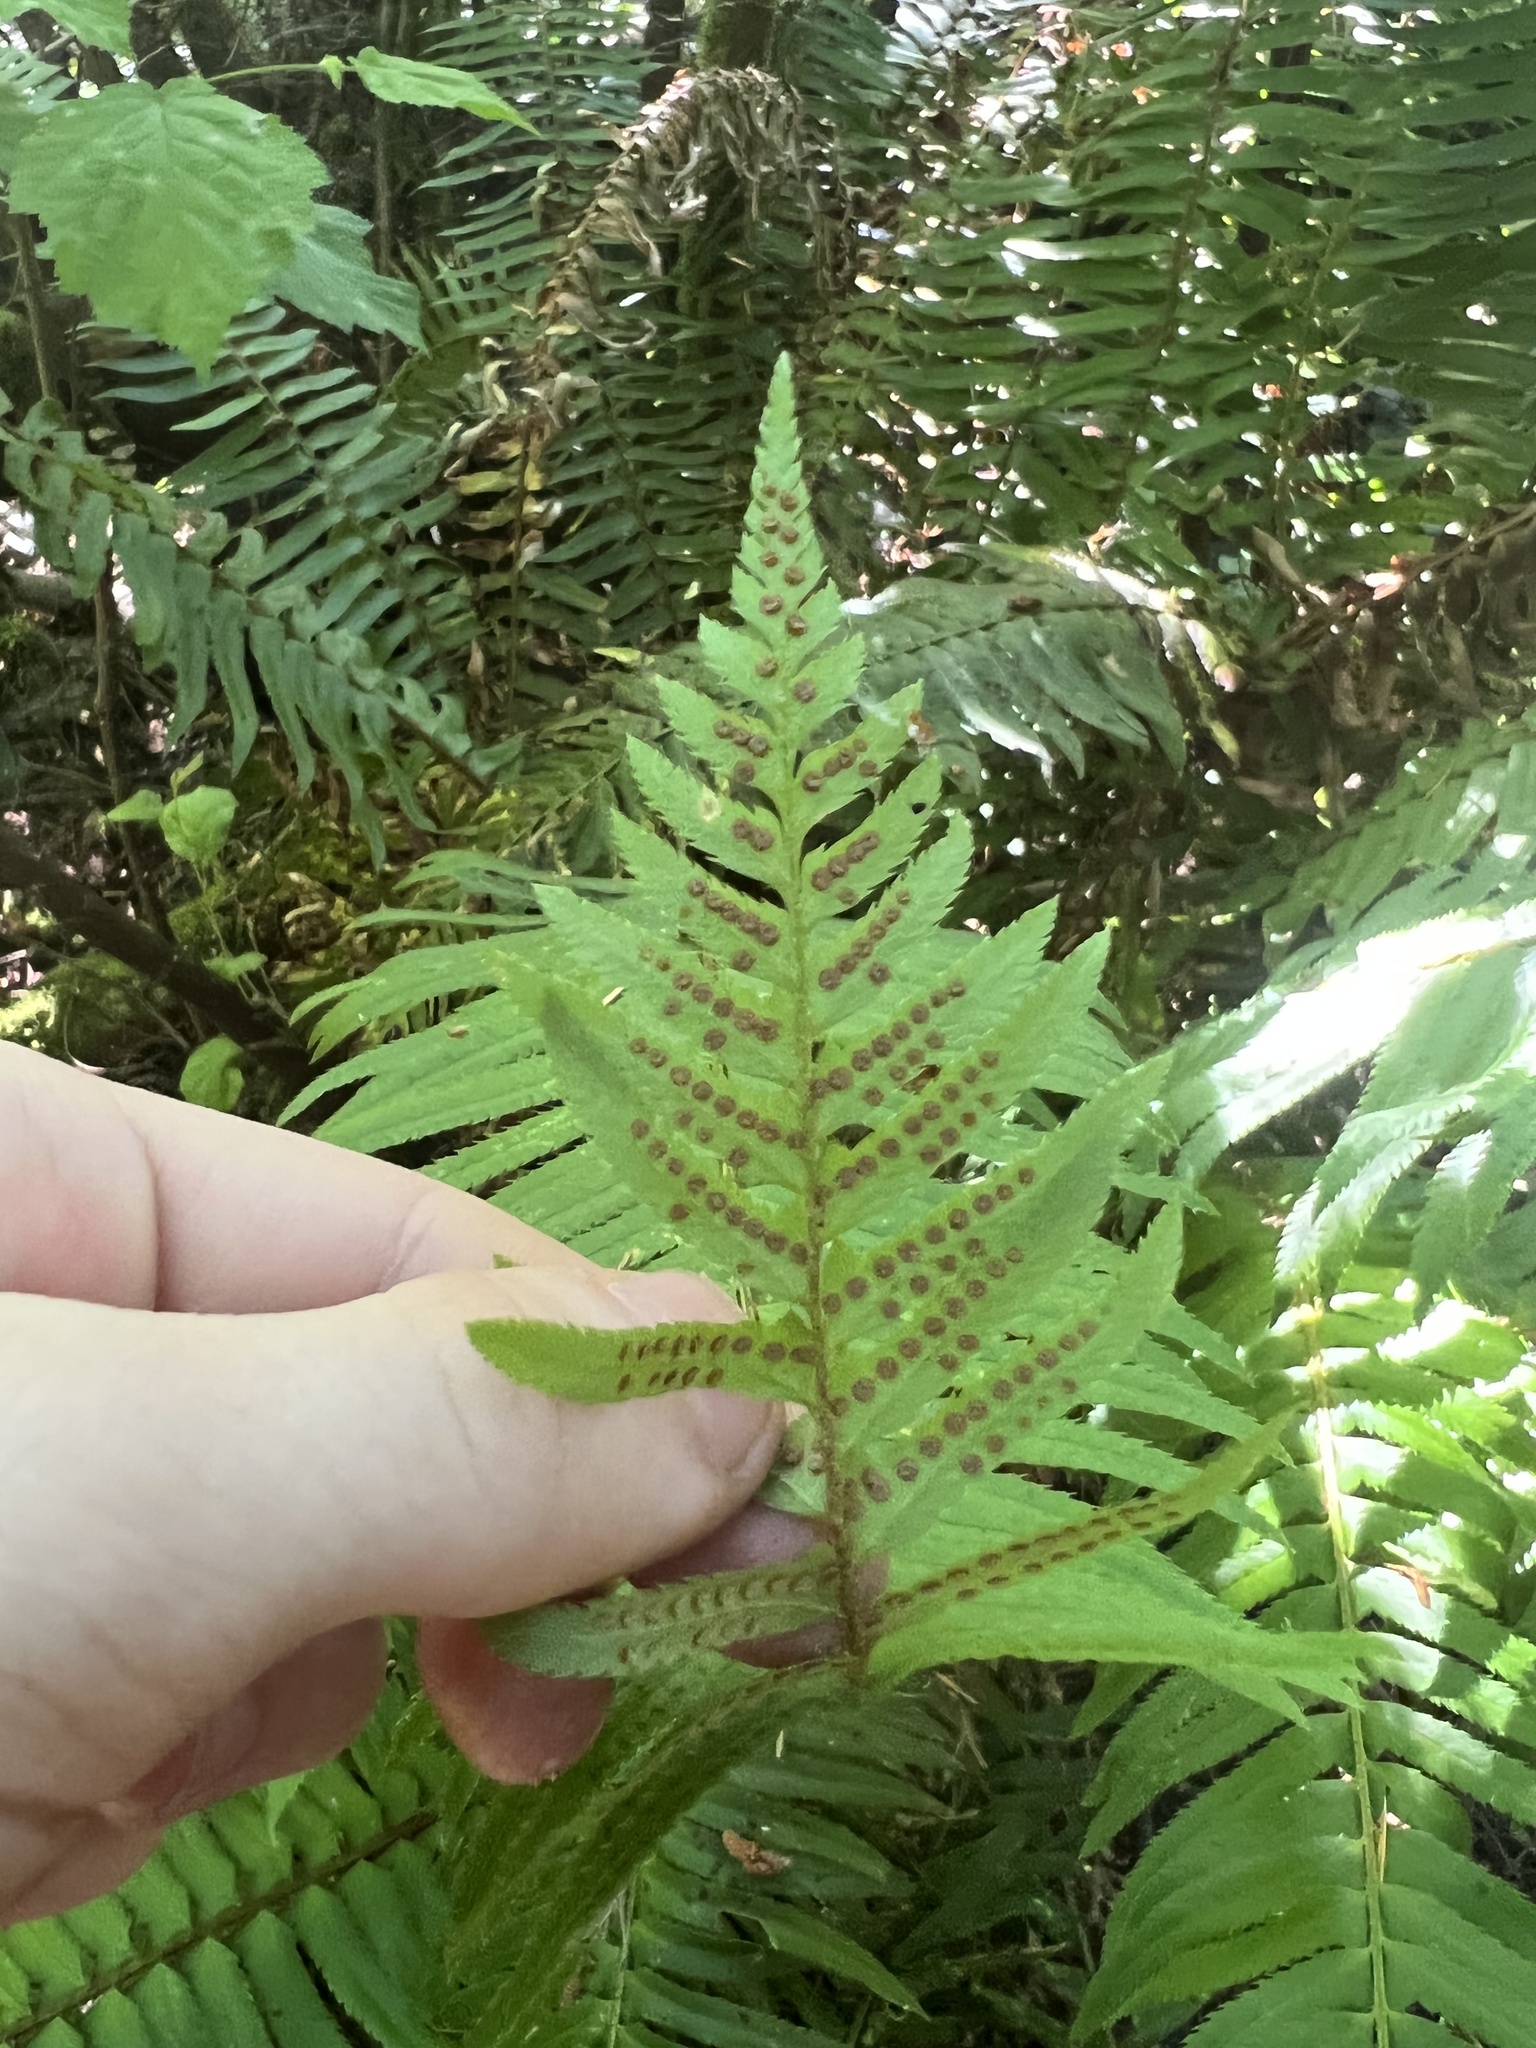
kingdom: Plantae
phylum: Tracheophyta
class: Polypodiopsida
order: Polypodiales
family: Dryopteridaceae
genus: Polystichum
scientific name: Polystichum munitum
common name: Western sword-fern
